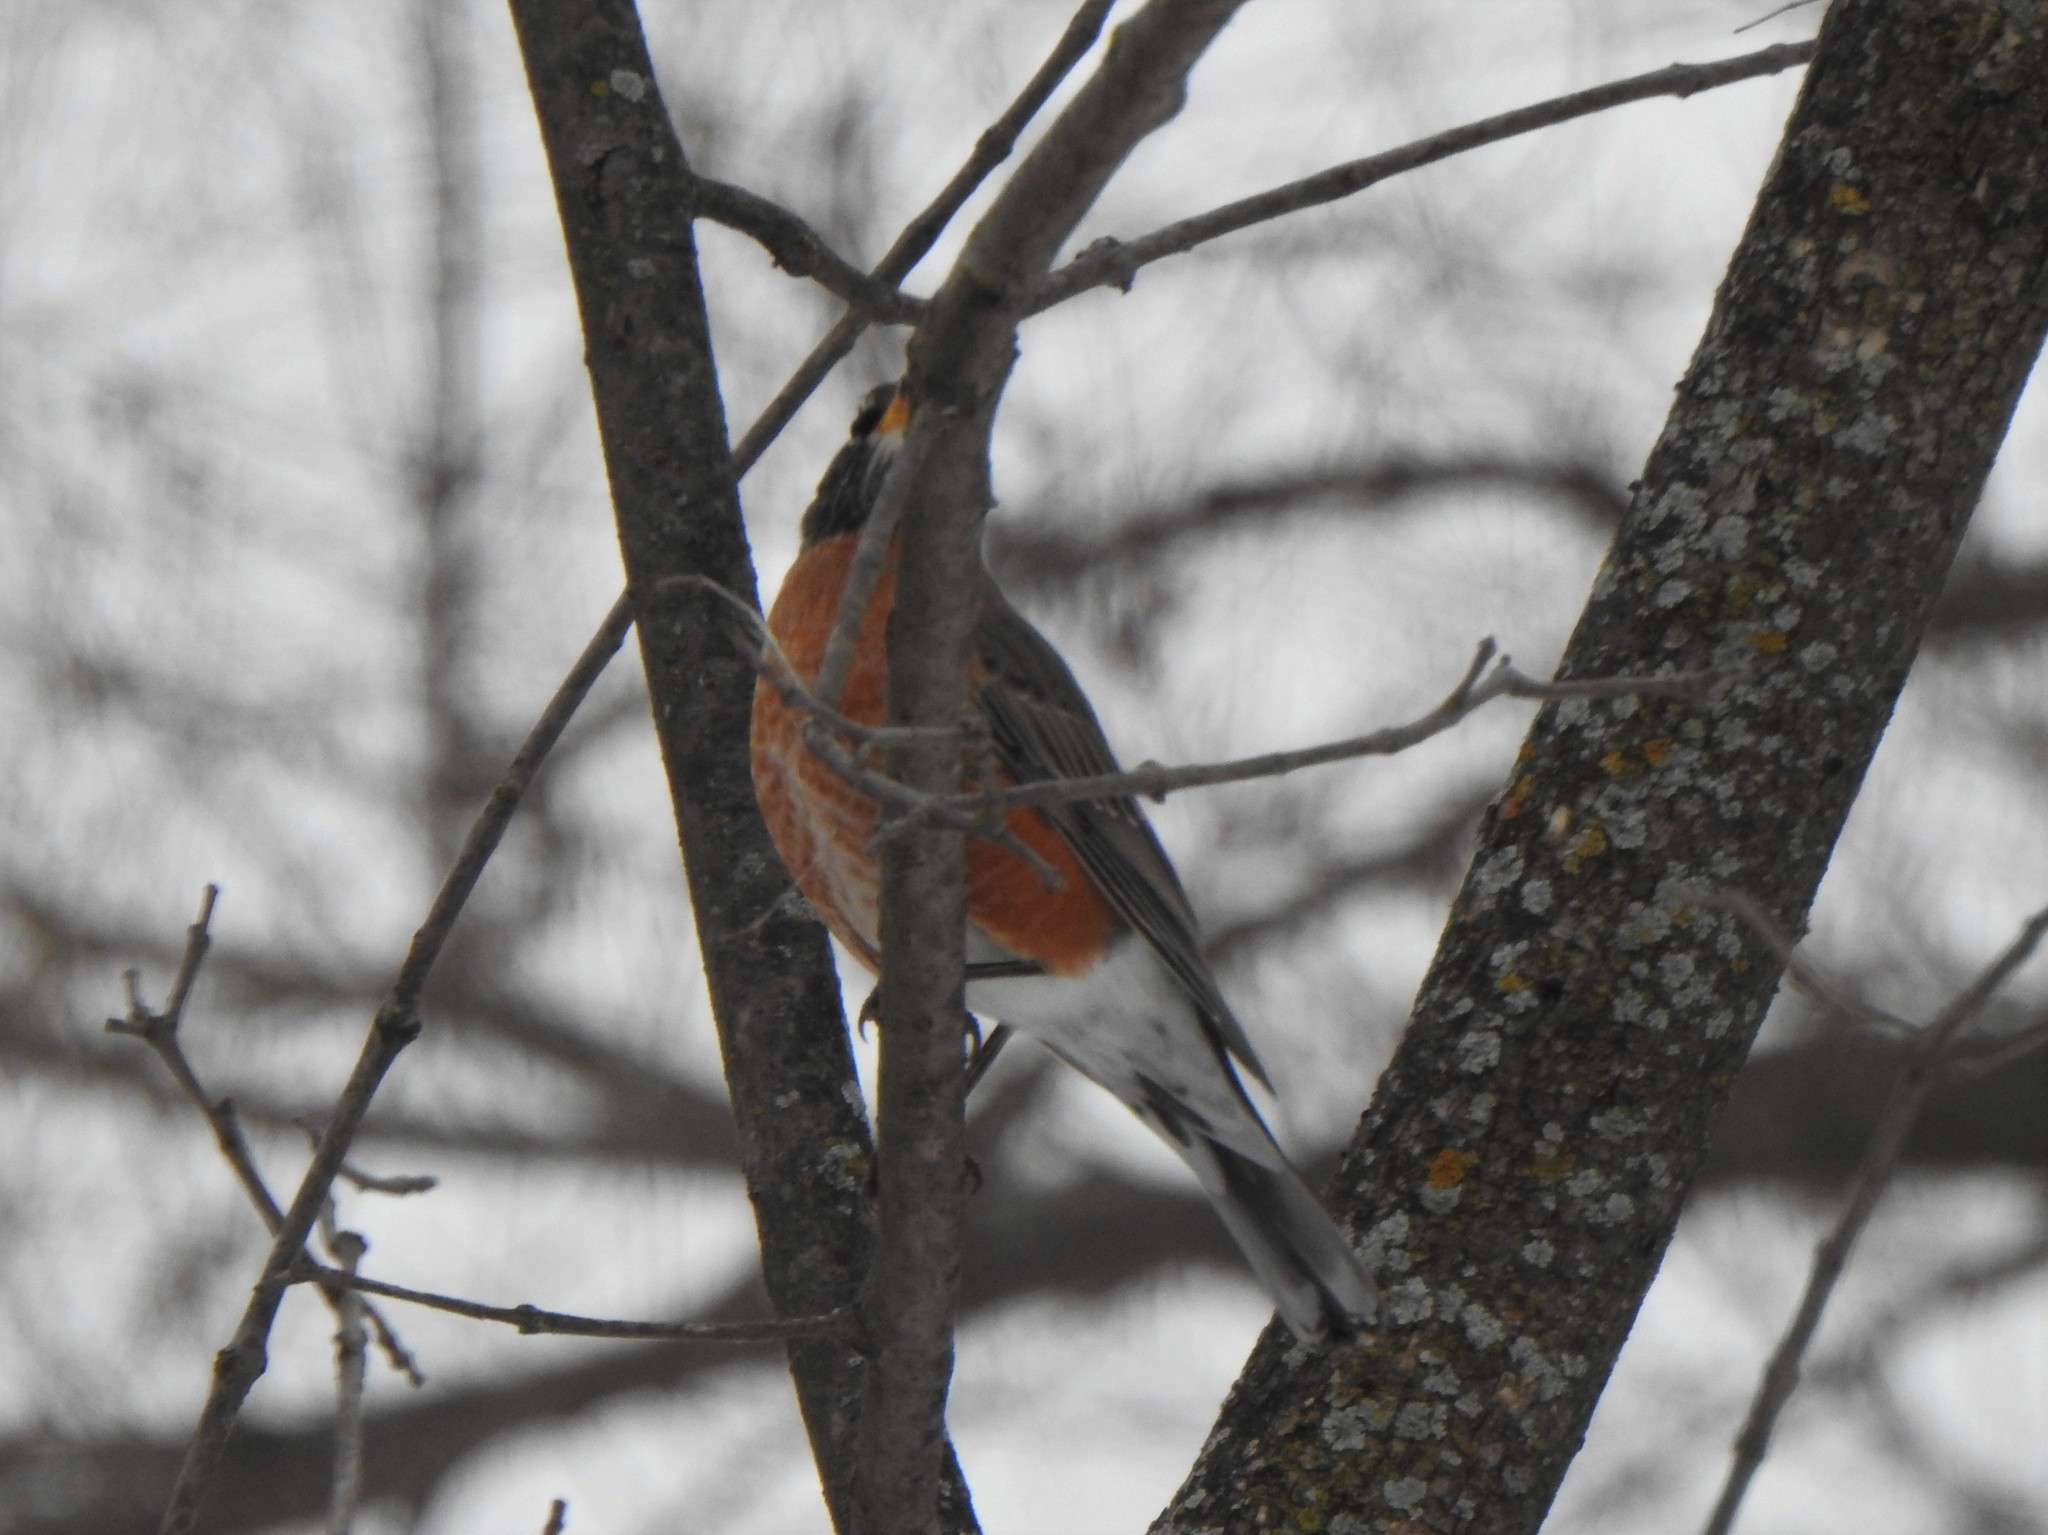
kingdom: Animalia
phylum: Chordata
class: Aves
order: Passeriformes
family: Turdidae
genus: Turdus
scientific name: Turdus migratorius
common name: American robin
